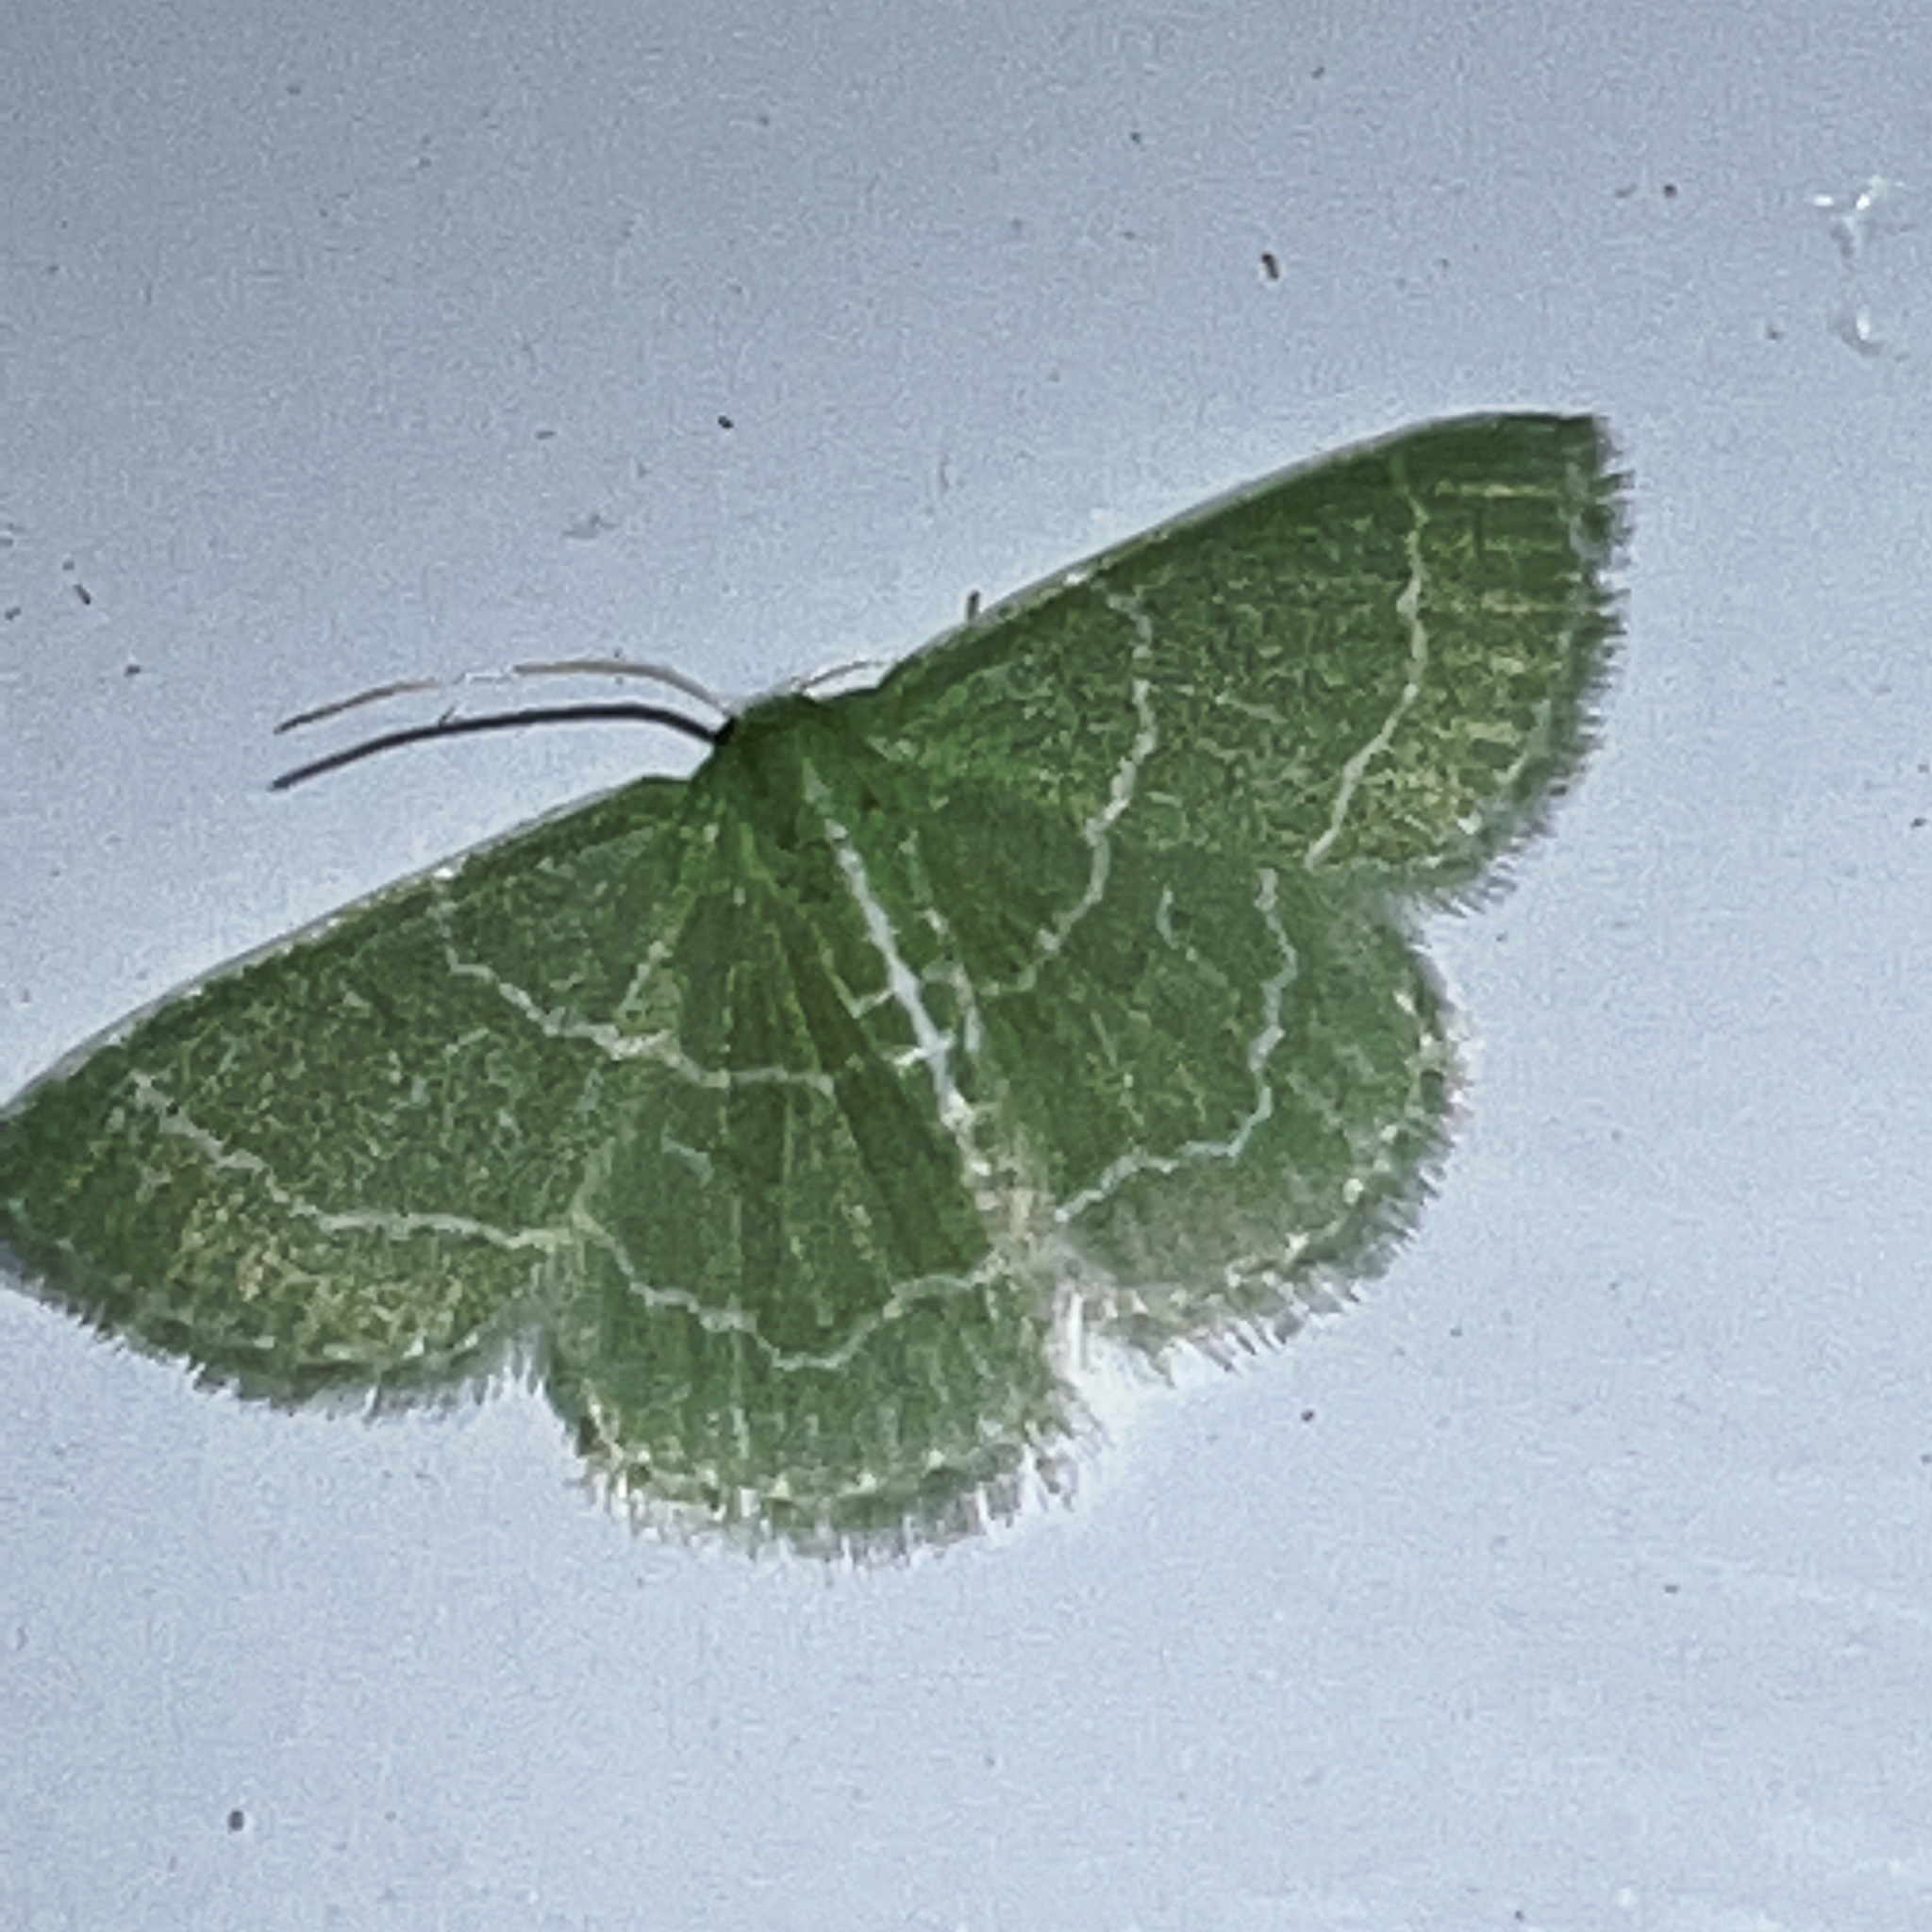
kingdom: Animalia
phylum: Arthropoda
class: Insecta
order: Lepidoptera
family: Geometridae
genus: Synchlora
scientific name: Synchlora aerata
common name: Wavy-lined emerald
